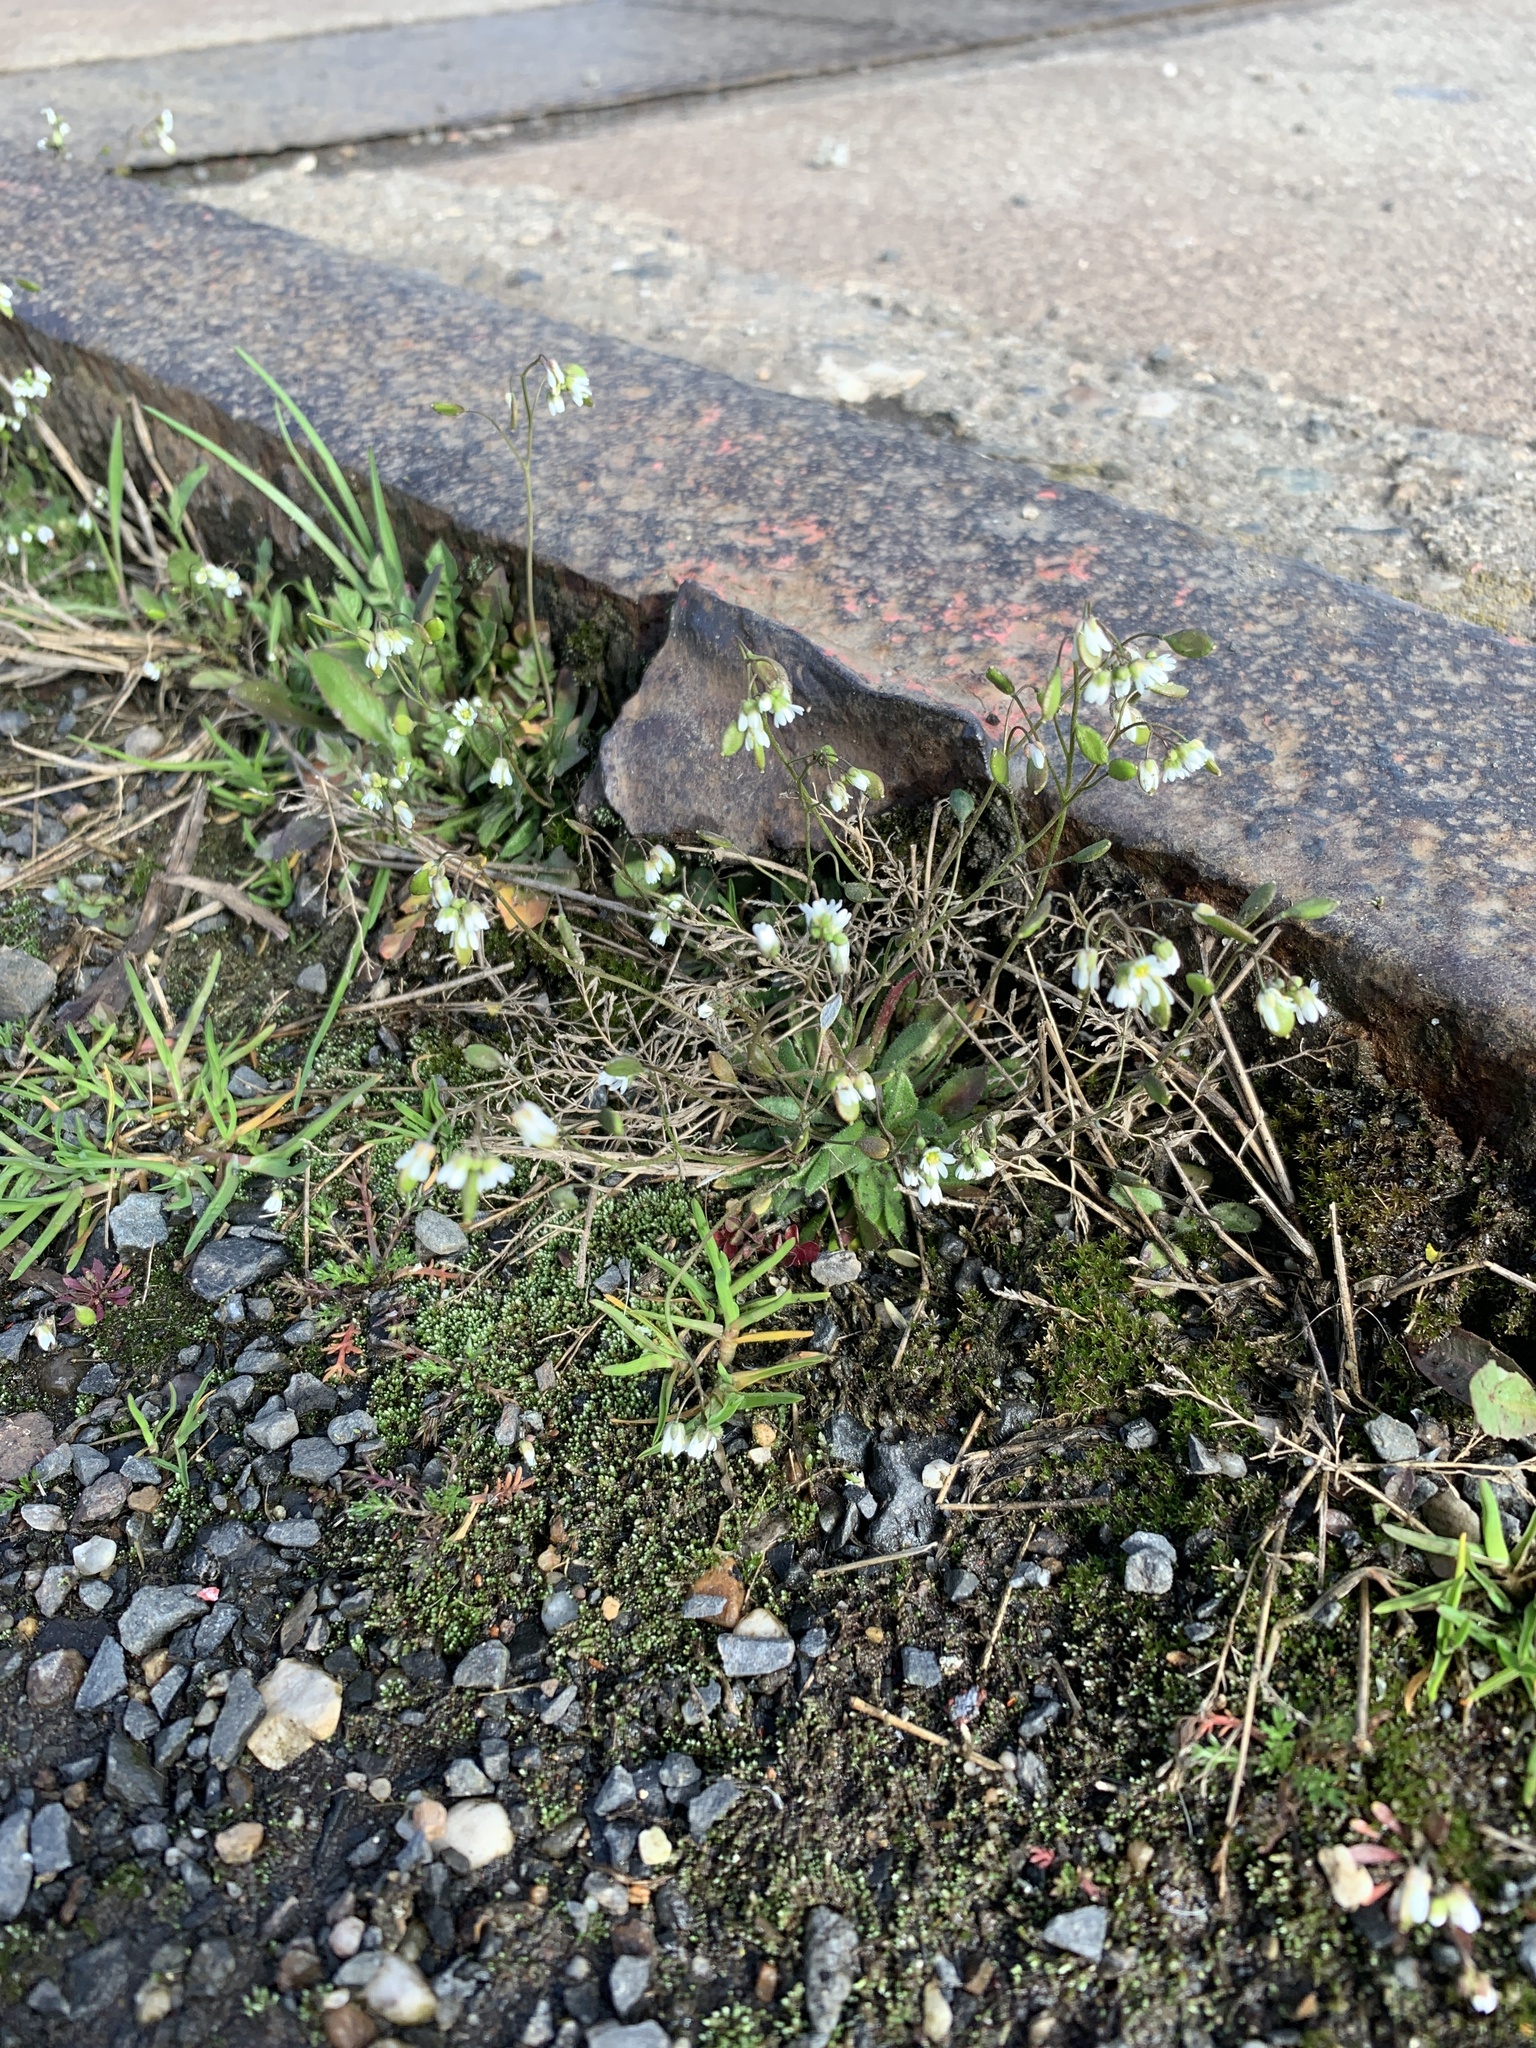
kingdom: Plantae
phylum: Tracheophyta
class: Magnoliopsida
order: Brassicales
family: Brassicaceae
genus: Draba
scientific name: Draba verna
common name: Spring draba
